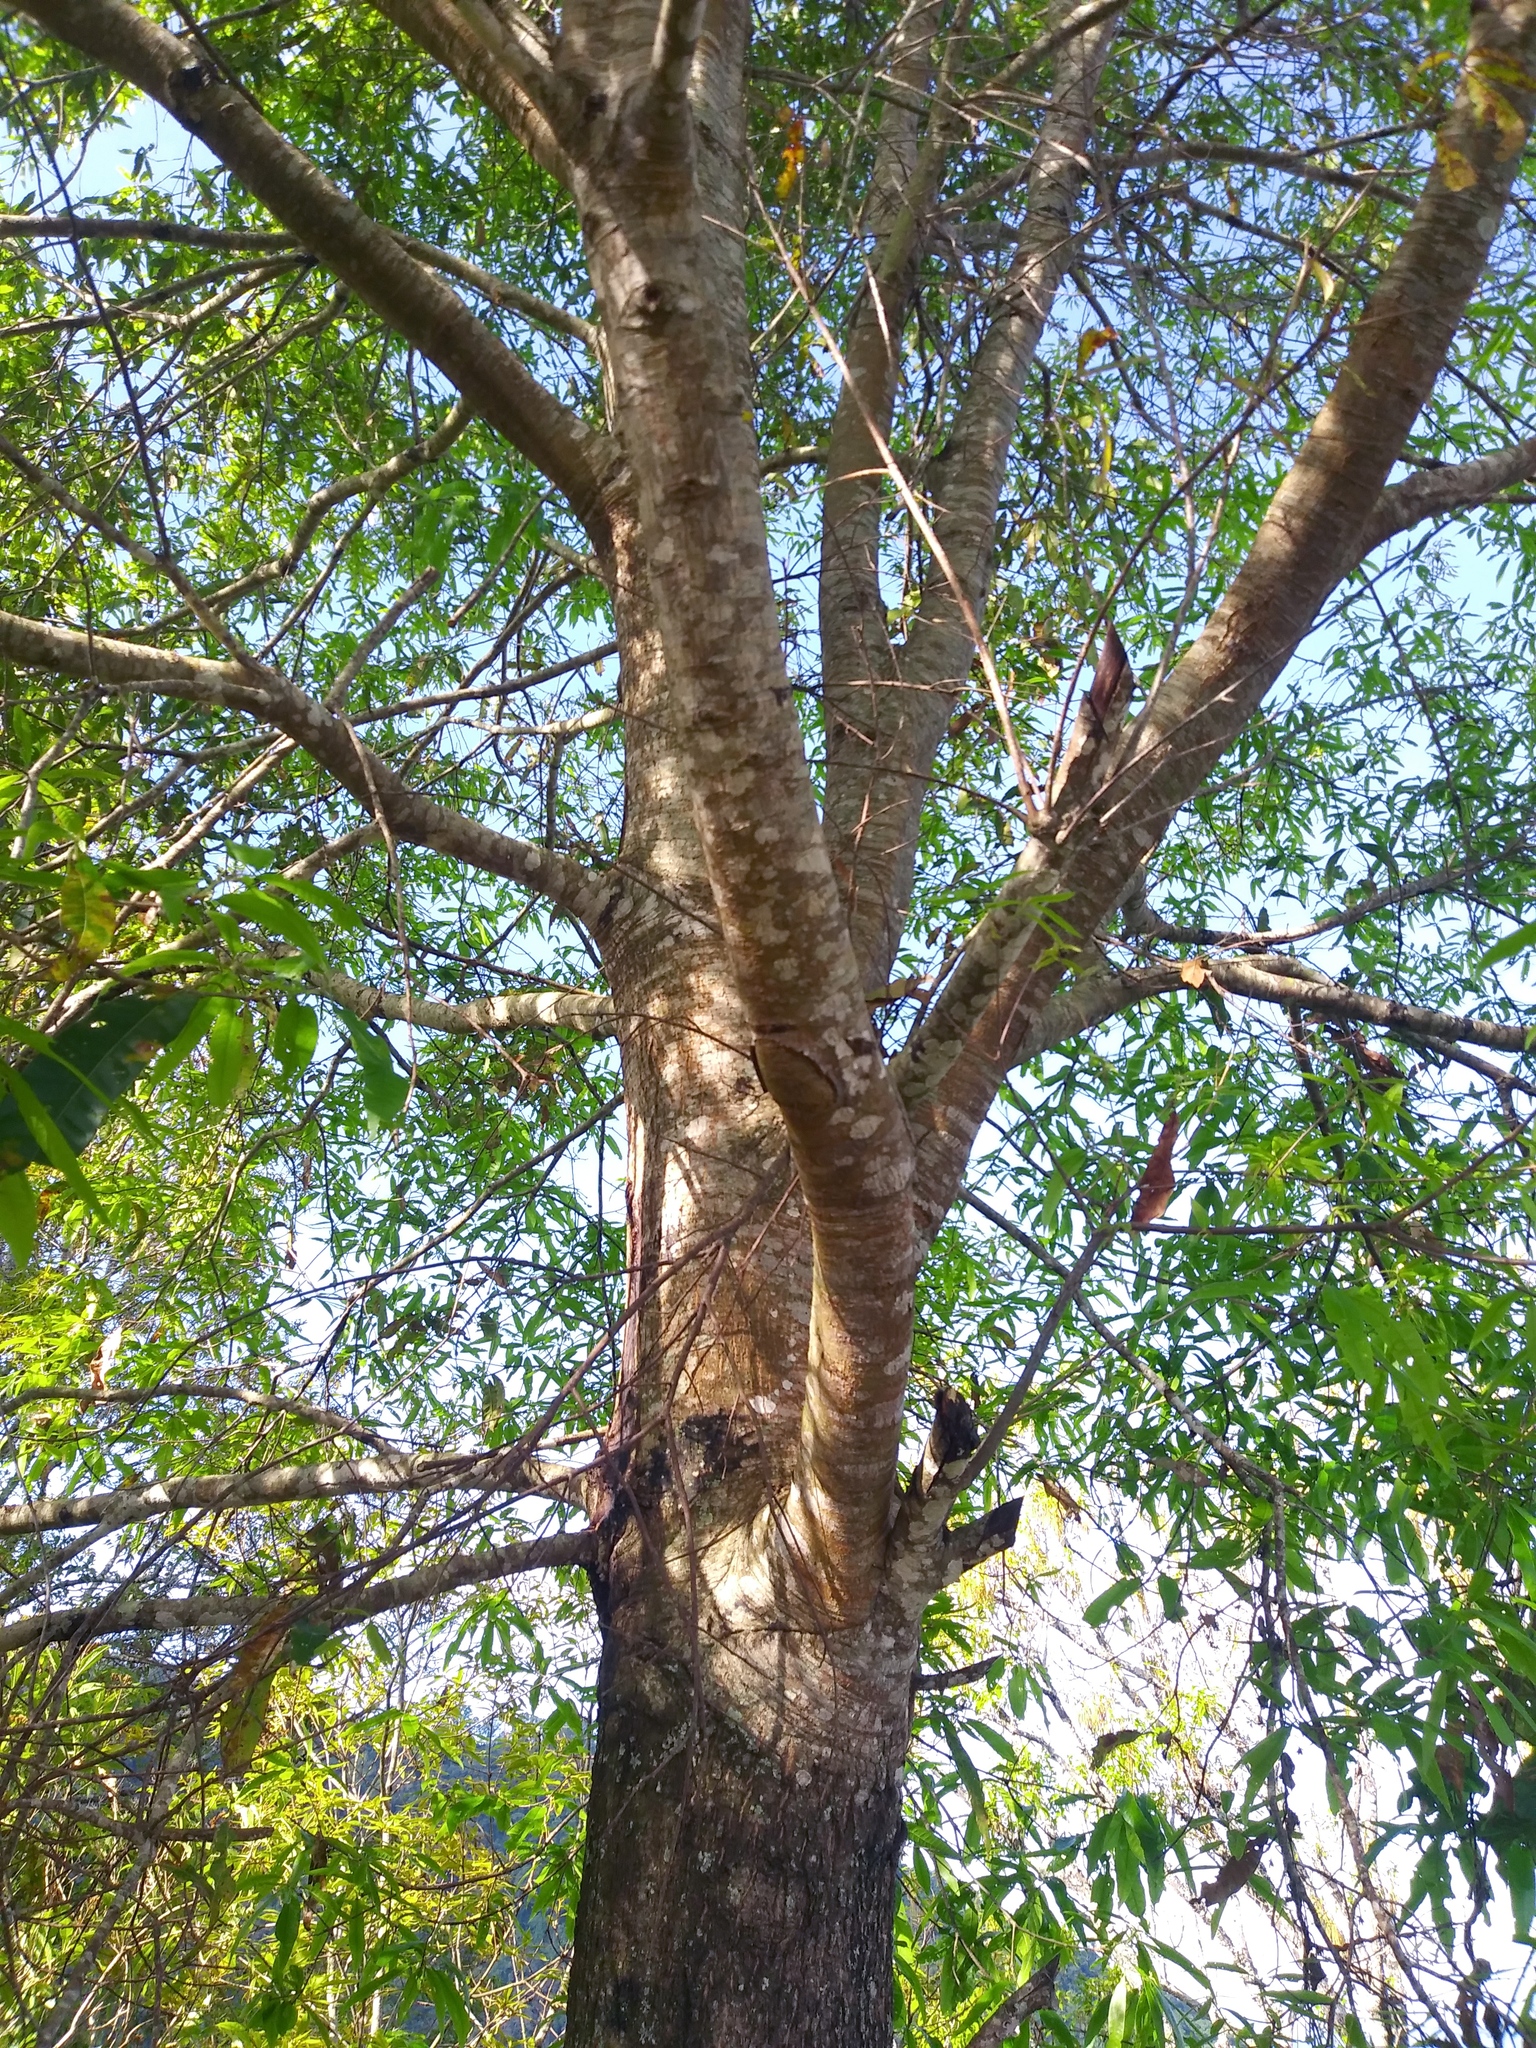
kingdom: Plantae
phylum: Tracheophyta
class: Magnoliopsida
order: Fagales
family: Fagaceae
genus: Quercus
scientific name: Quercus crispifolia
